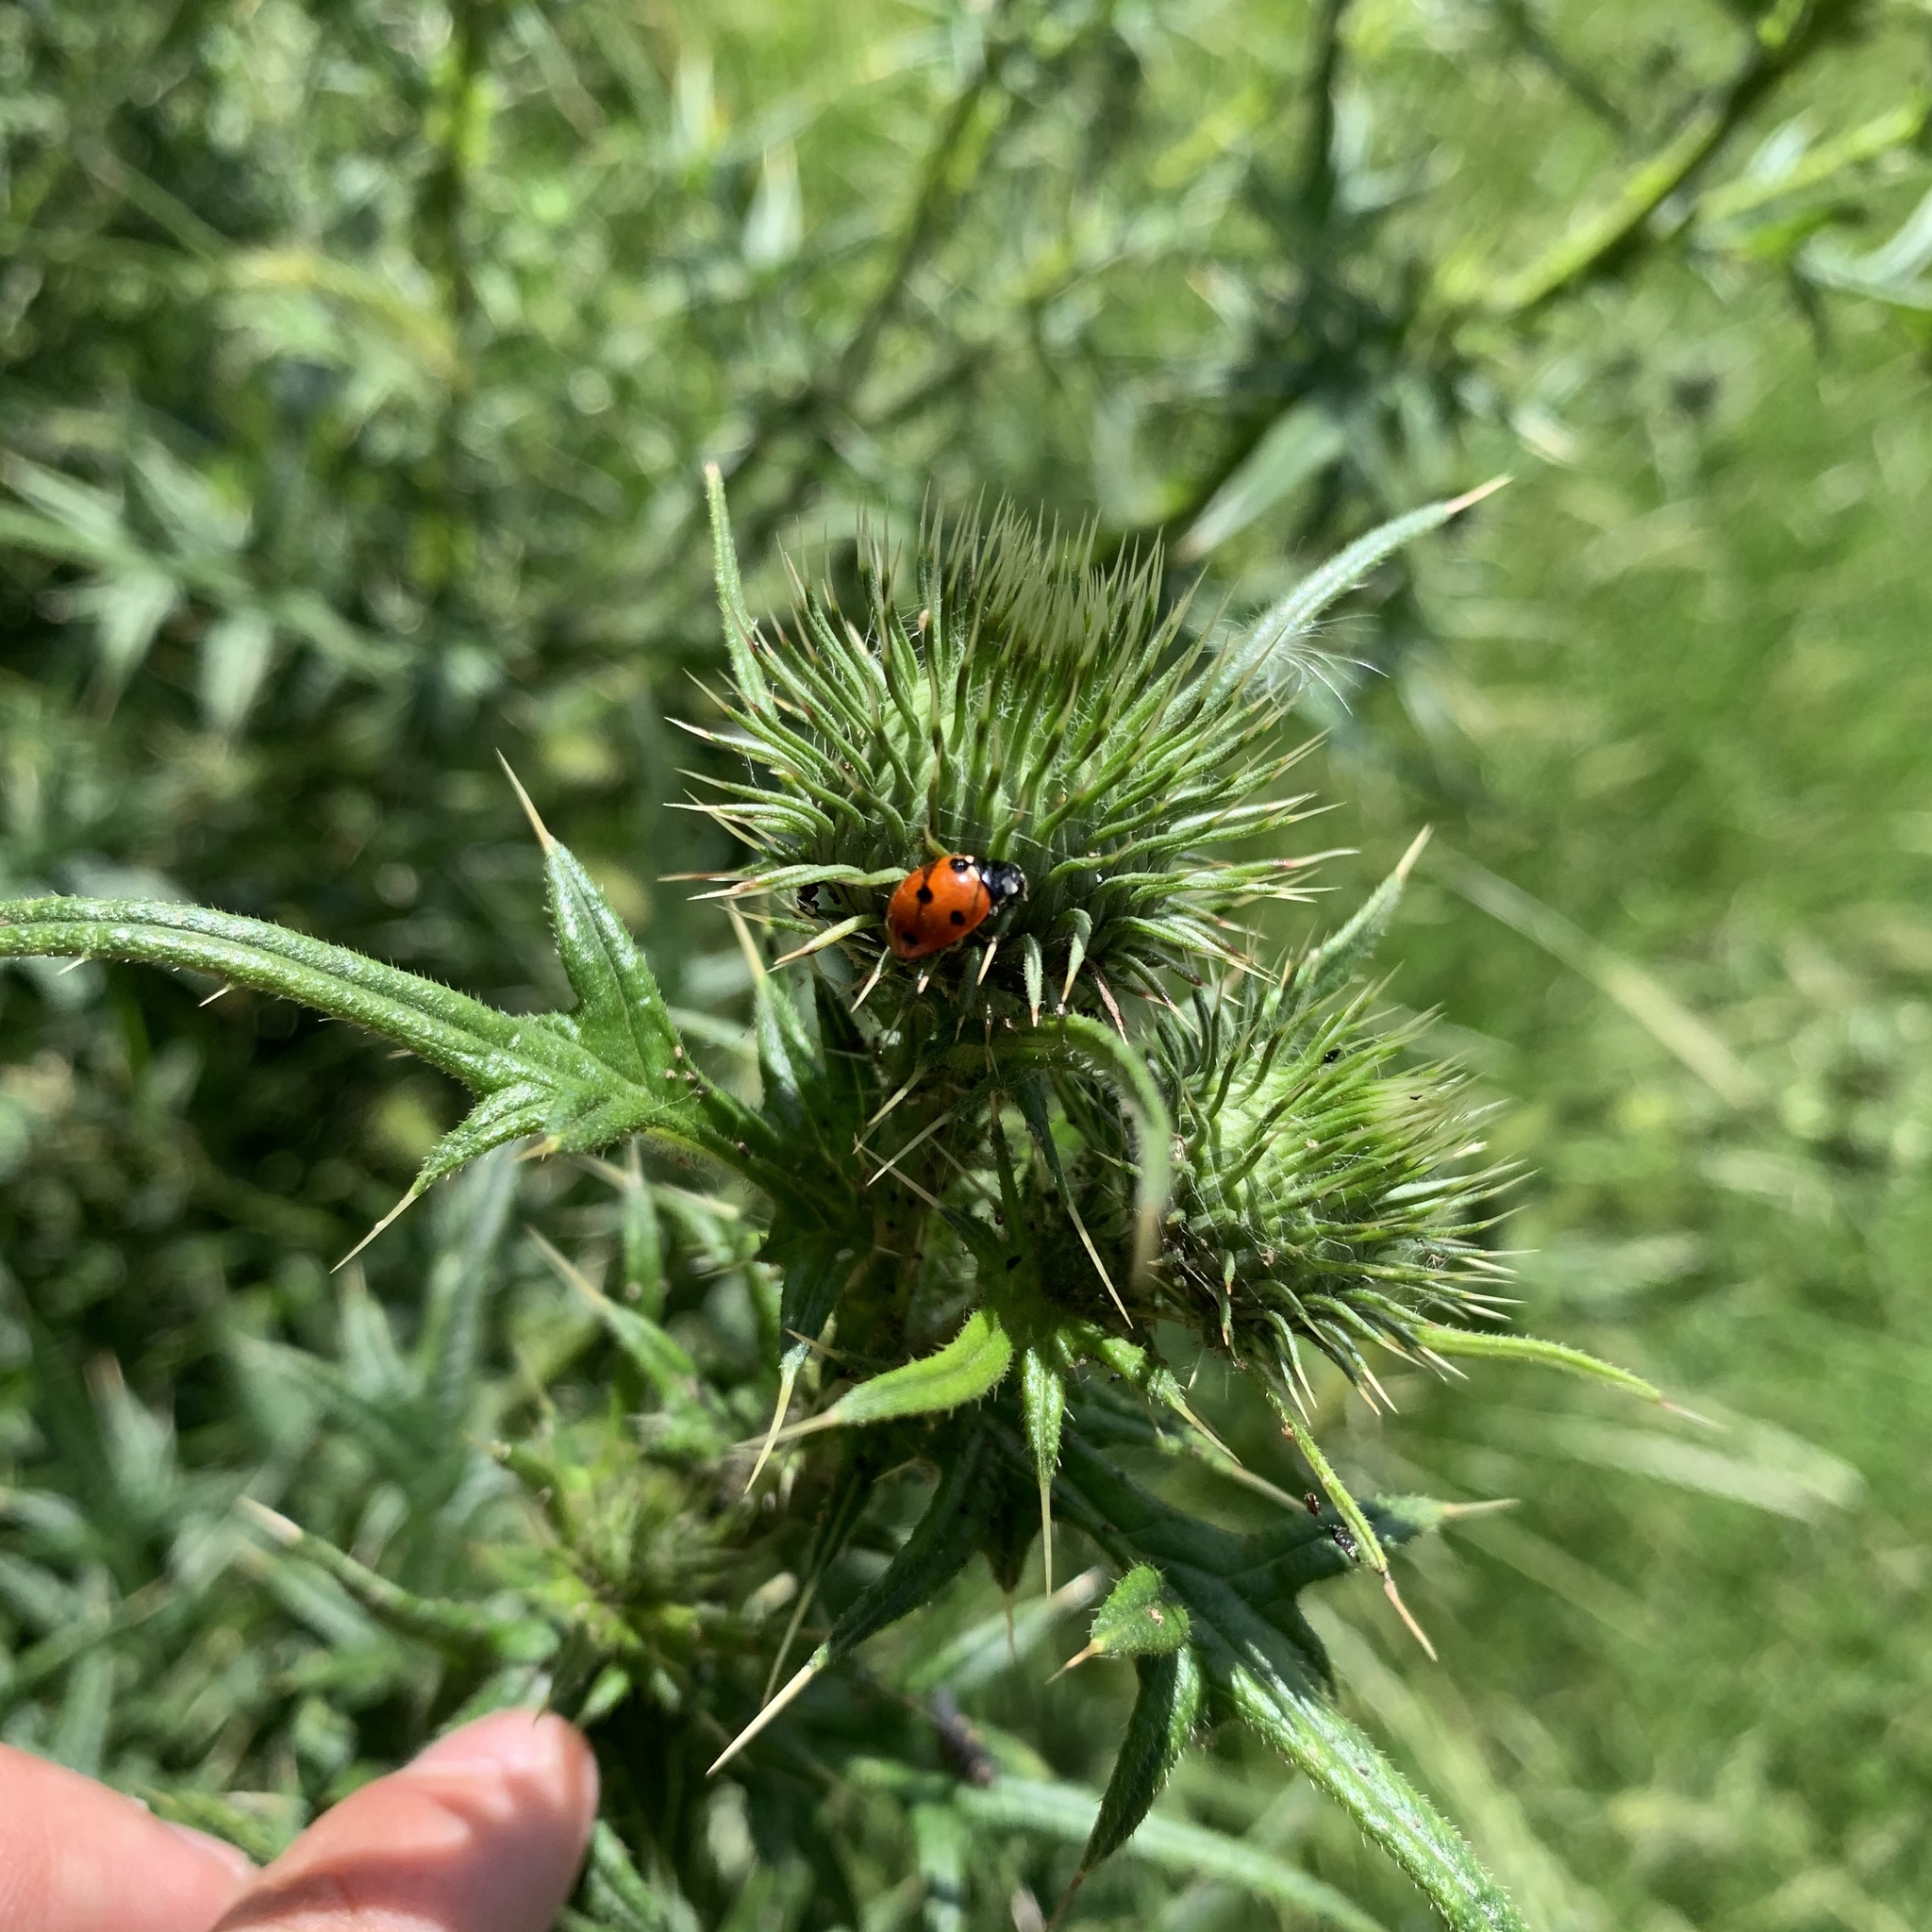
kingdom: Animalia
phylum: Arthropoda
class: Insecta
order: Coleoptera
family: Coccinellidae
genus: Coccinella
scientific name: Coccinella septempunctata
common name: Sevenspotted lady beetle
